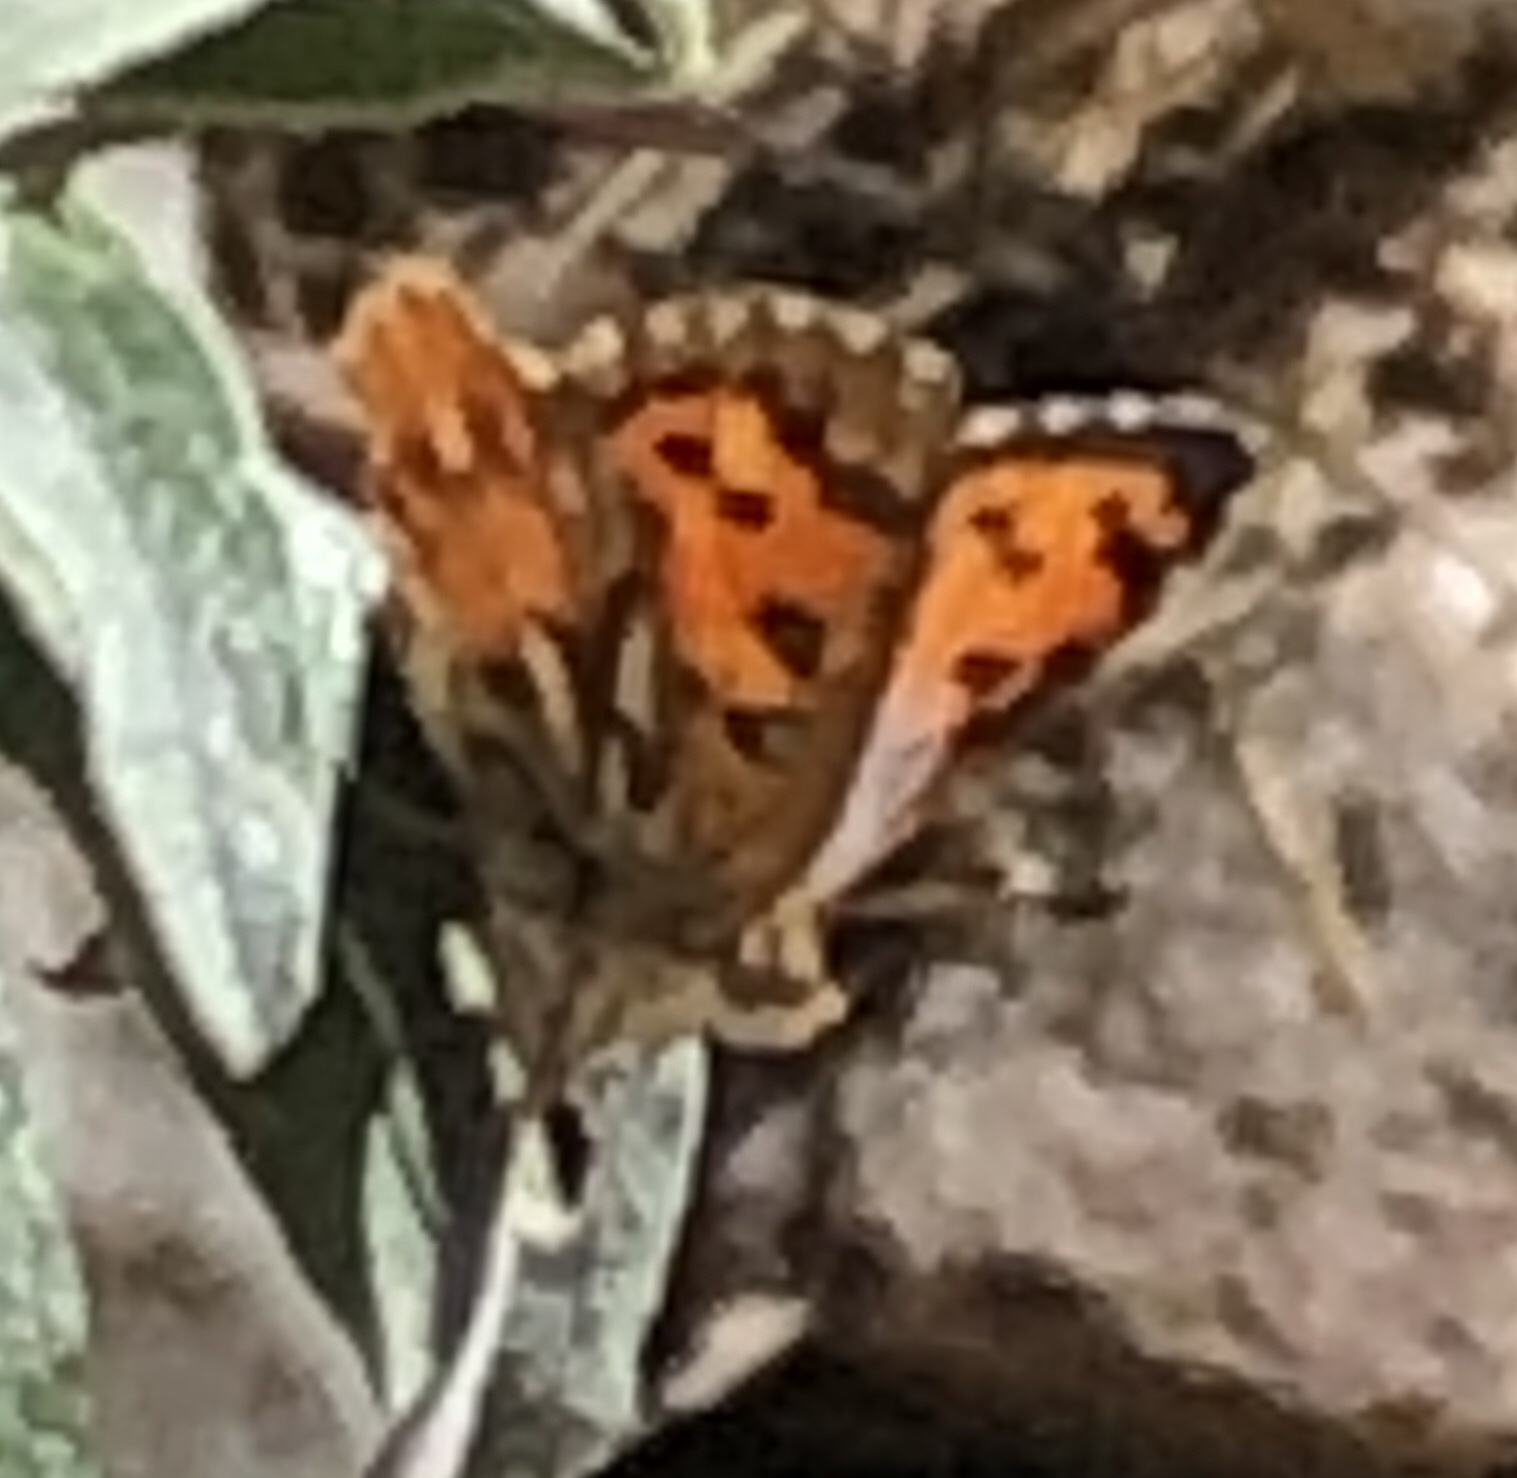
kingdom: Animalia
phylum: Arthropoda
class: Insecta
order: Lepidoptera
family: Lycaenidae
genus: Chrysoritis
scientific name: Chrysoritis
